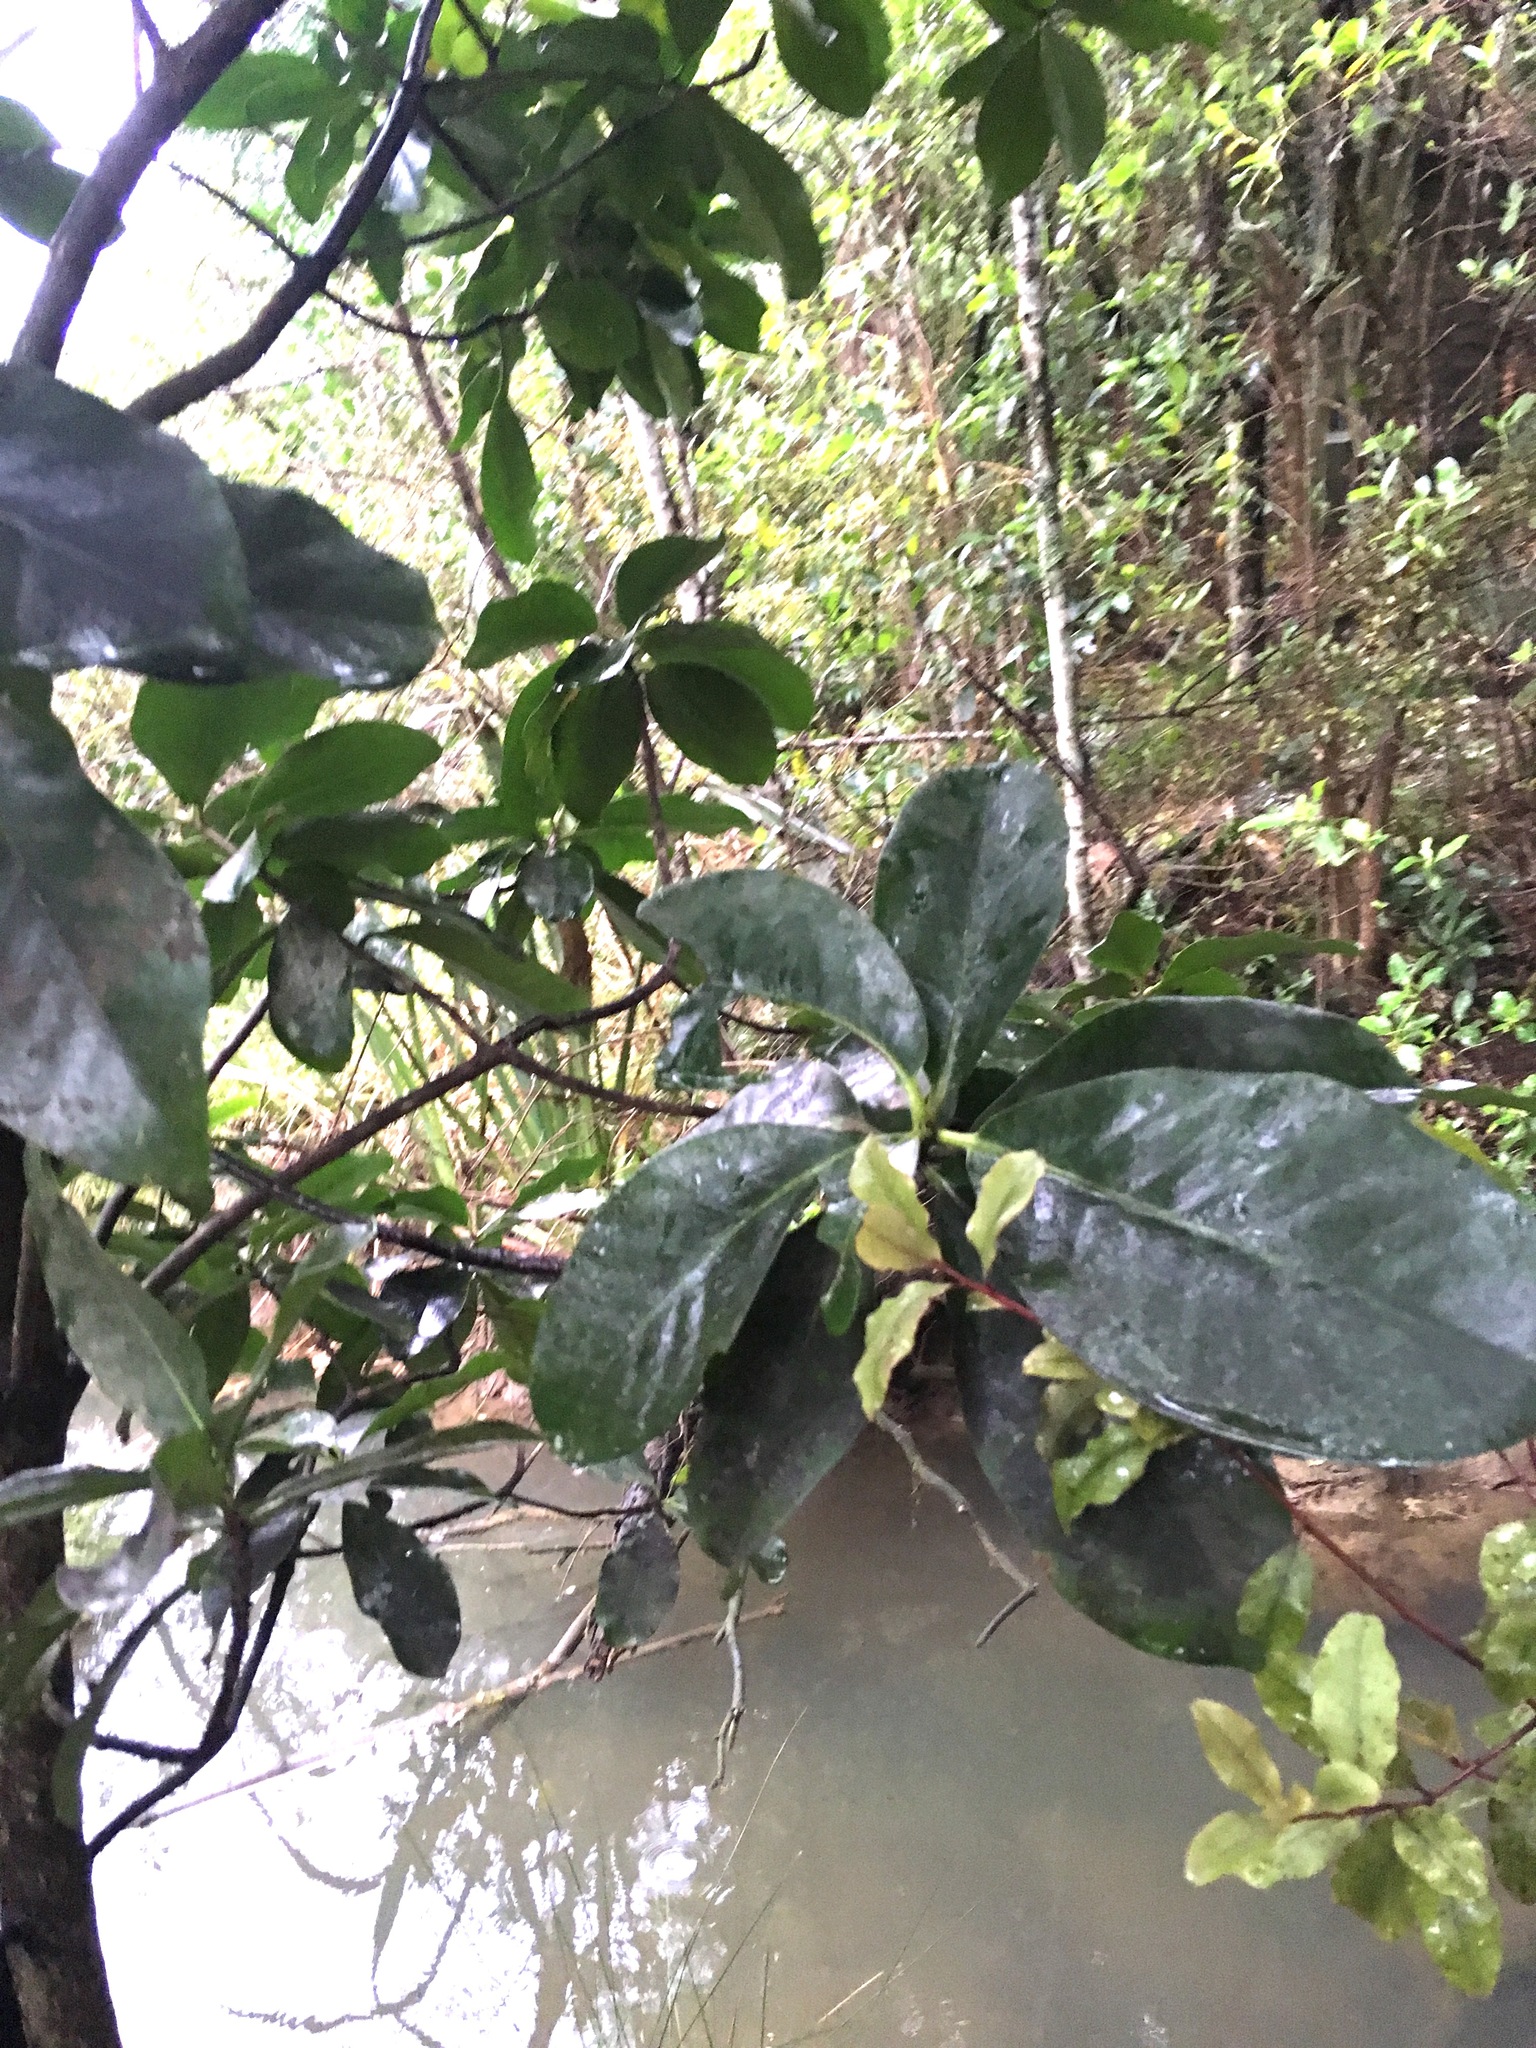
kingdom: Plantae
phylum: Tracheophyta
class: Magnoliopsida
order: Cucurbitales
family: Corynocarpaceae
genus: Corynocarpus
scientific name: Corynocarpus laevigatus
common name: New zealand laurel
